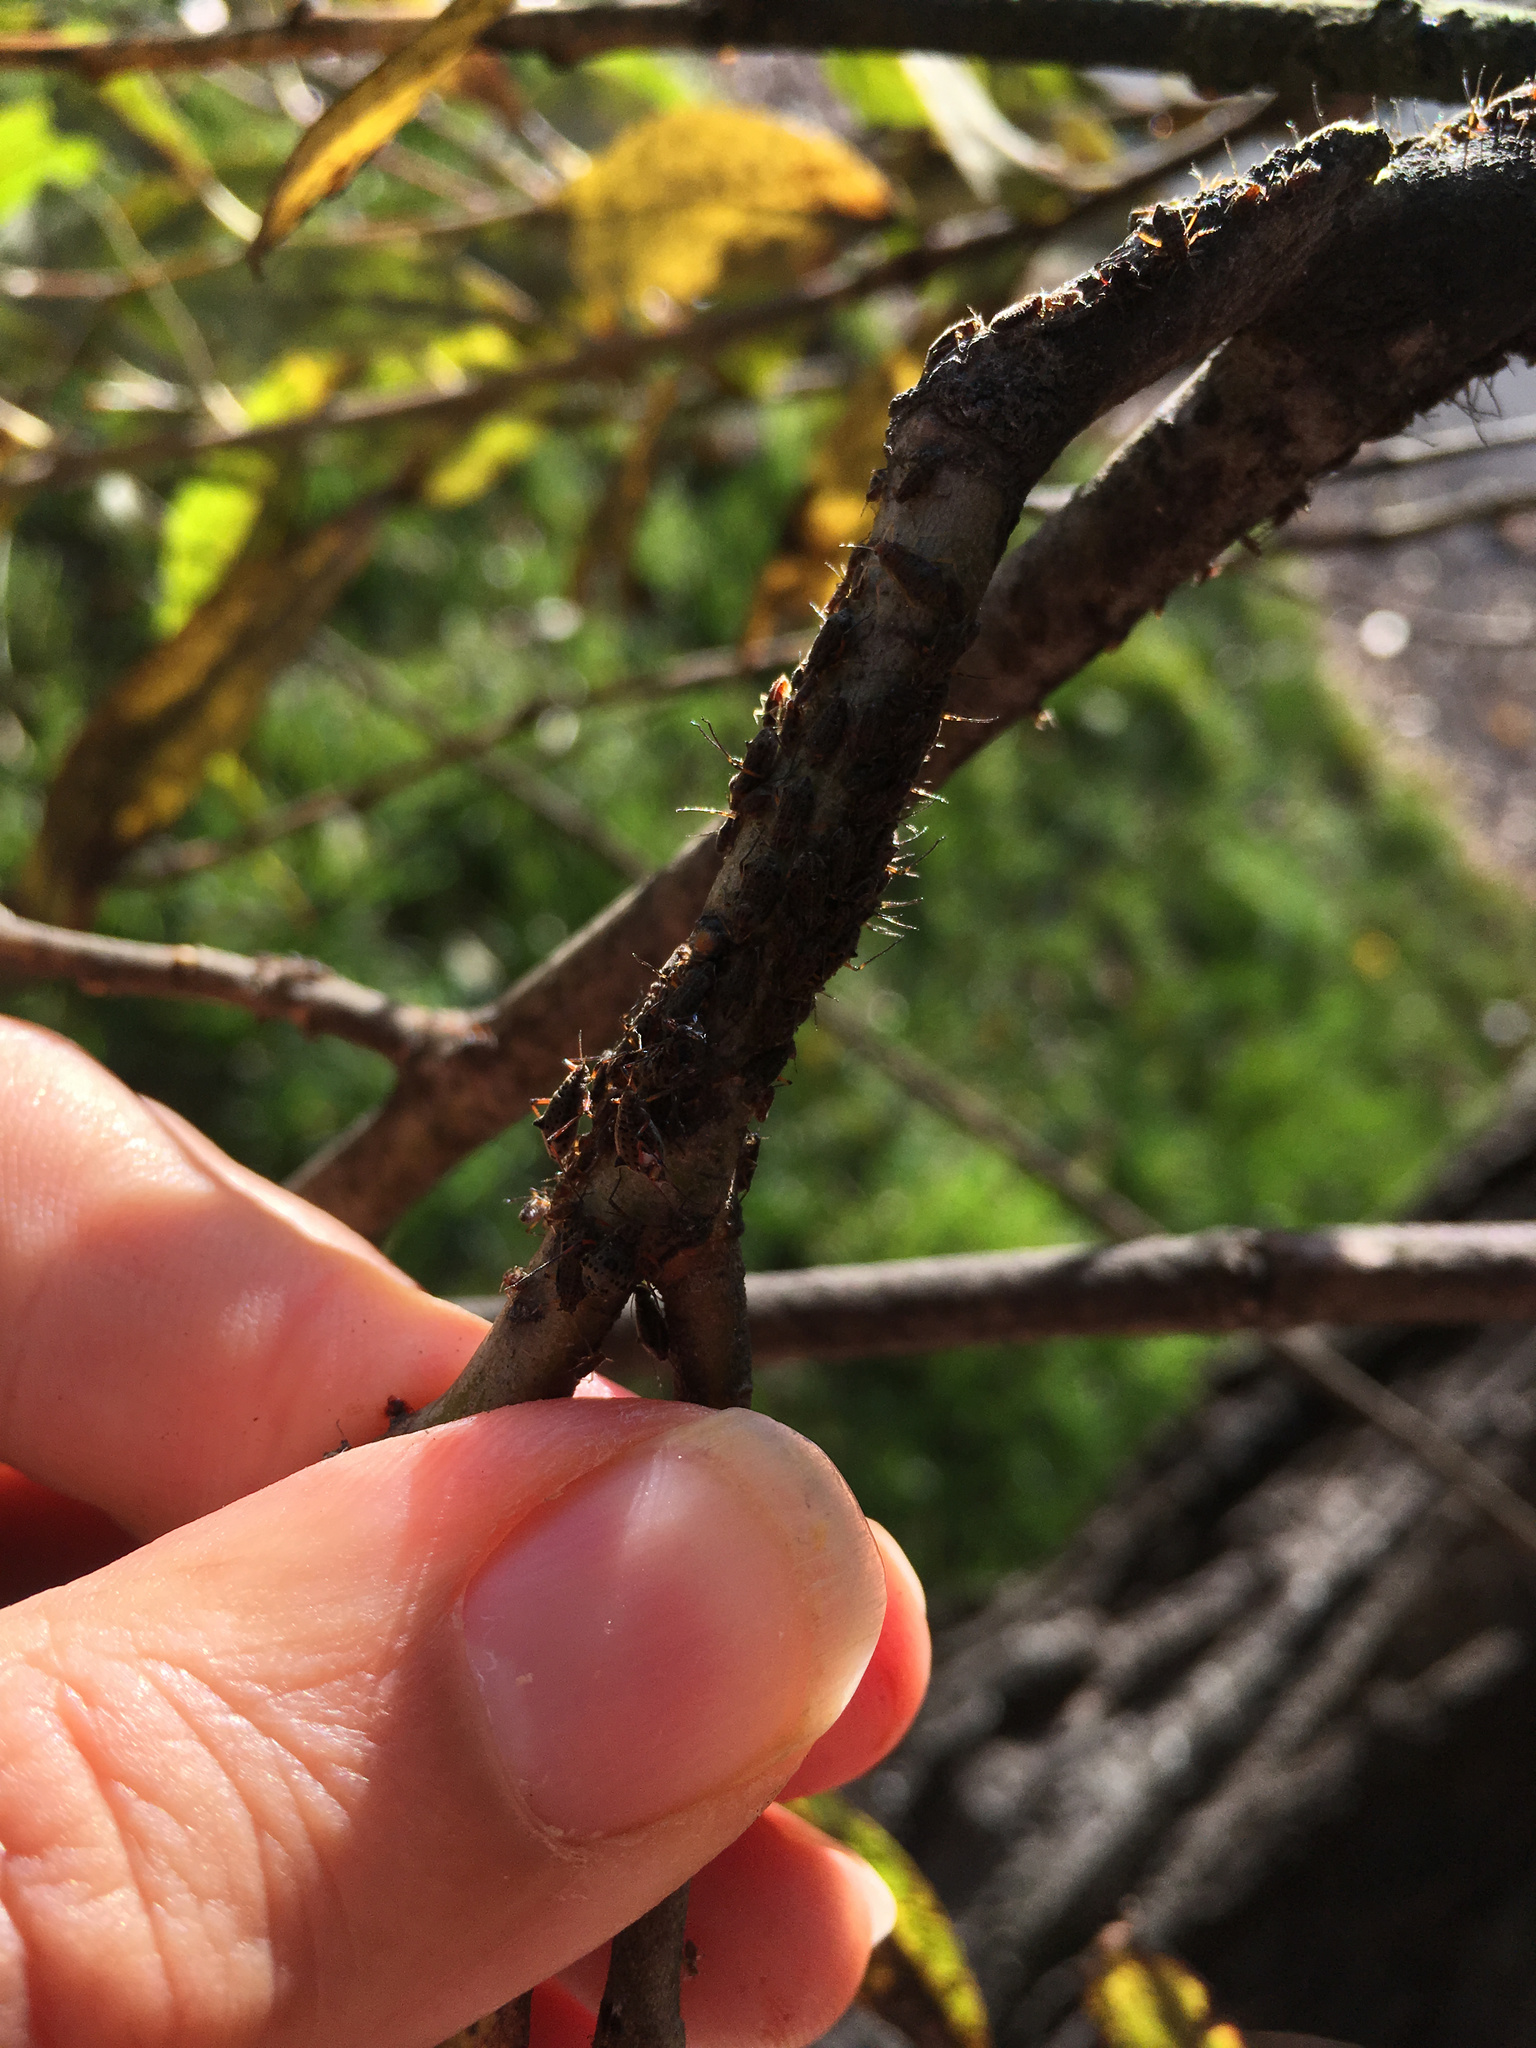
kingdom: Animalia
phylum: Arthropoda
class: Insecta
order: Hemiptera
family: Aphididae
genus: Tuberolachnus
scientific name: Tuberolachnus salignus
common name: Giant willow aphid
